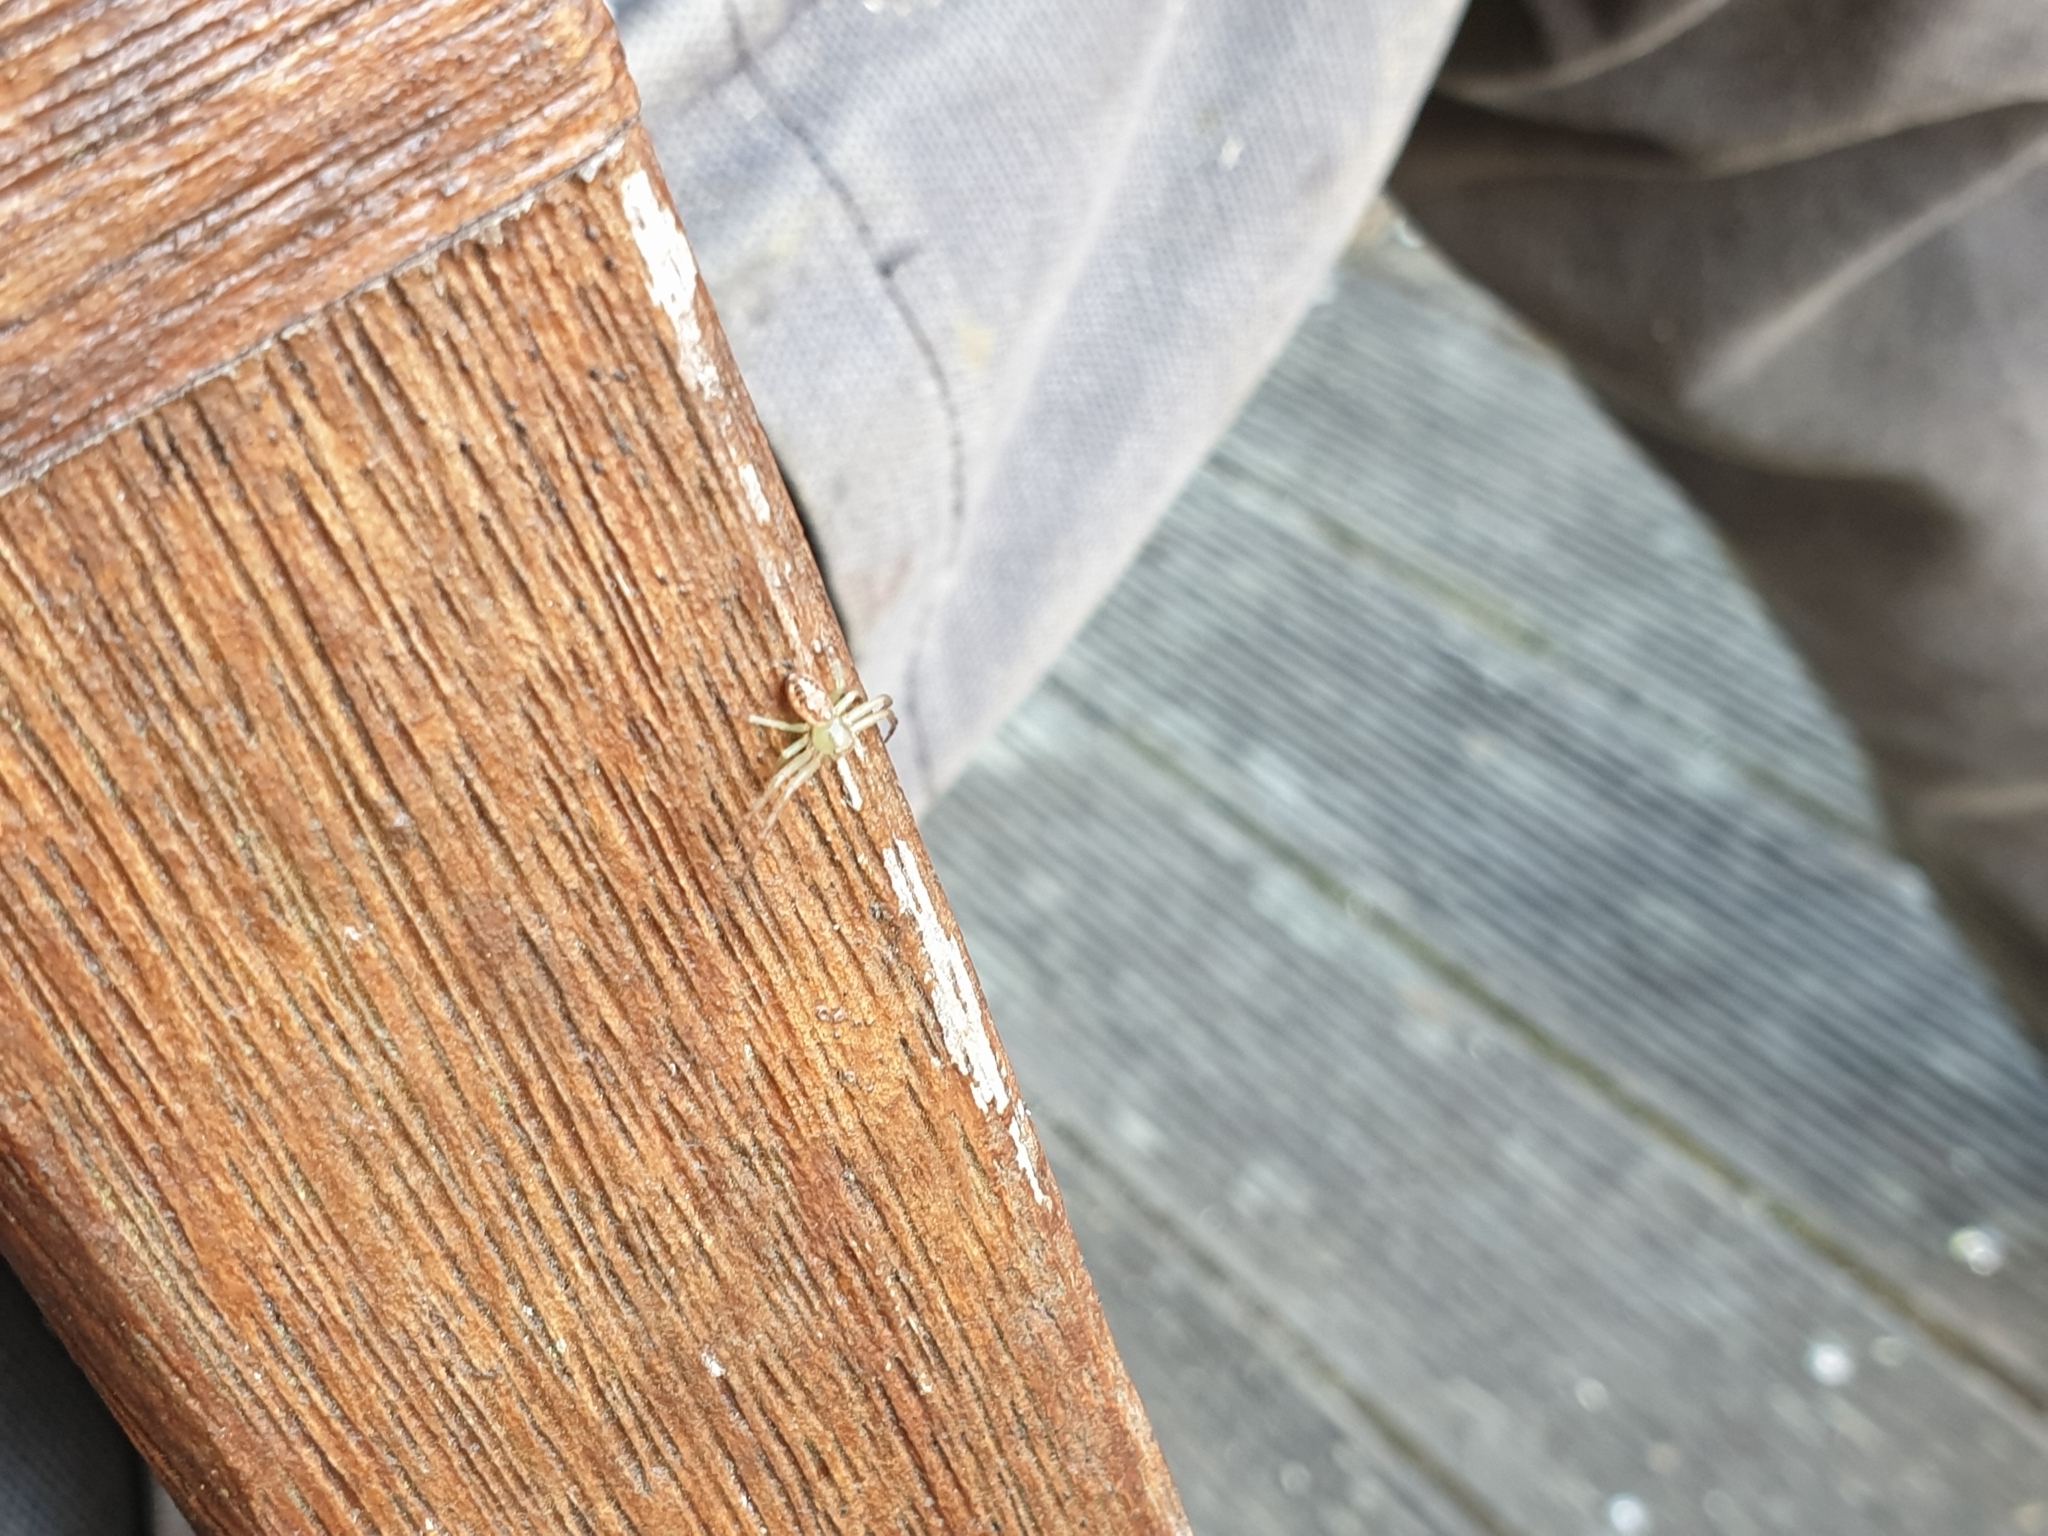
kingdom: Animalia
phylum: Arthropoda
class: Arachnida
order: Araneae
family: Thomisidae
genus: Diaea
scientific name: Diaea ambara
